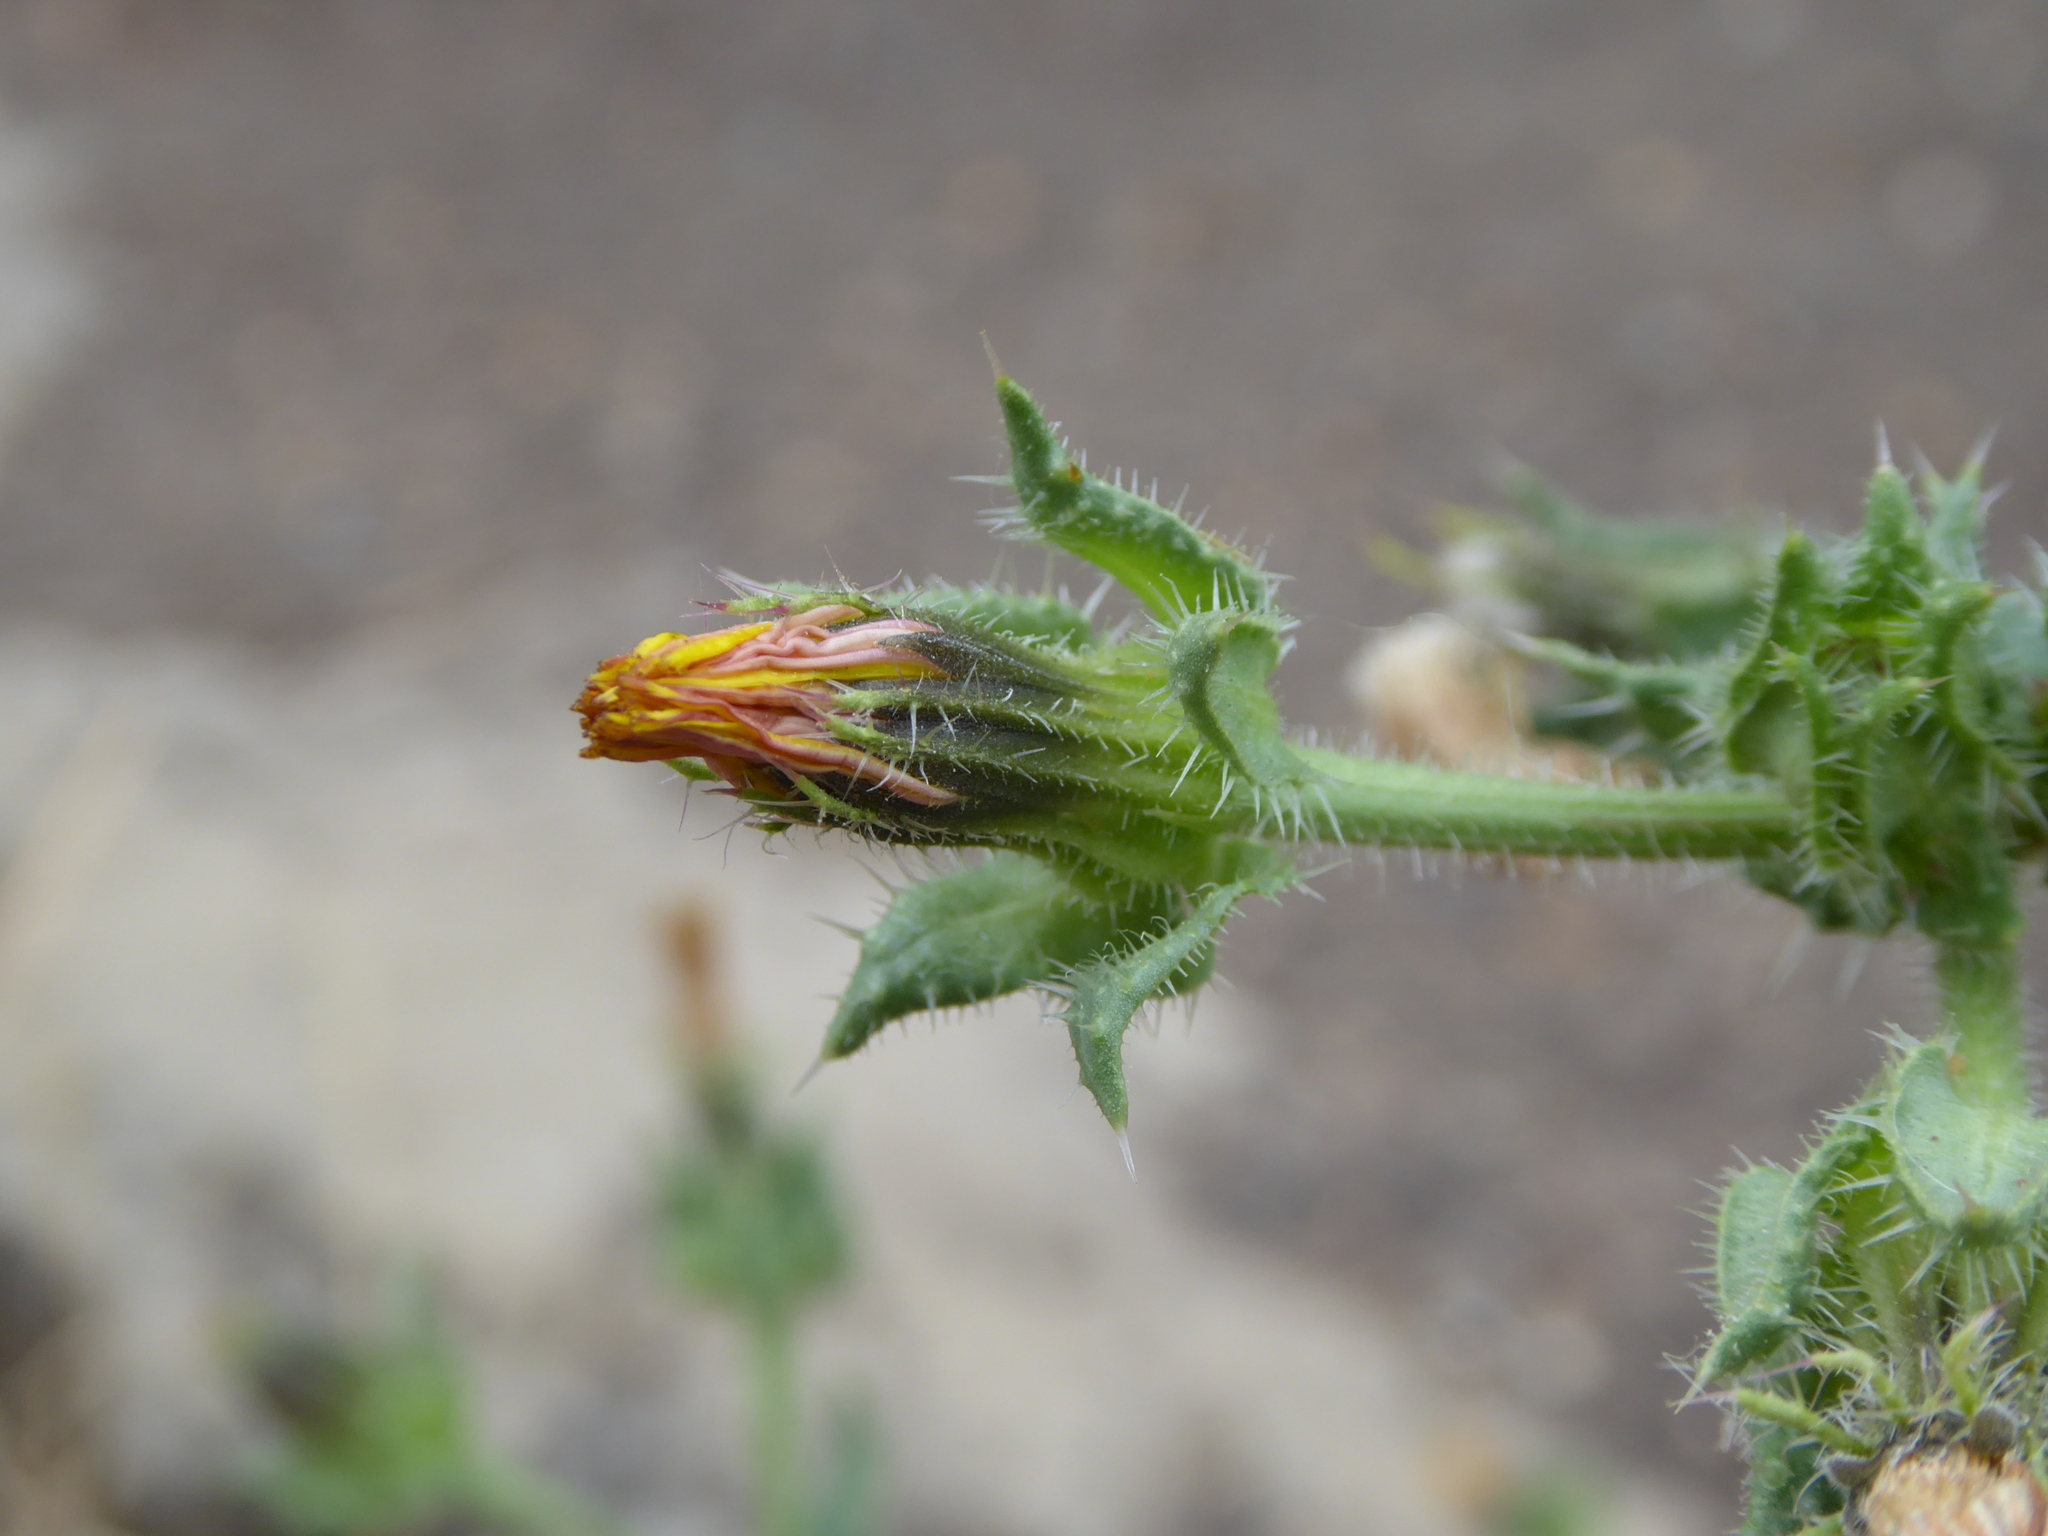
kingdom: Plantae
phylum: Tracheophyta
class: Magnoliopsida
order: Asterales
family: Asteraceae
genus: Helminthotheca
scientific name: Helminthotheca echioides
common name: Ox-tongue
